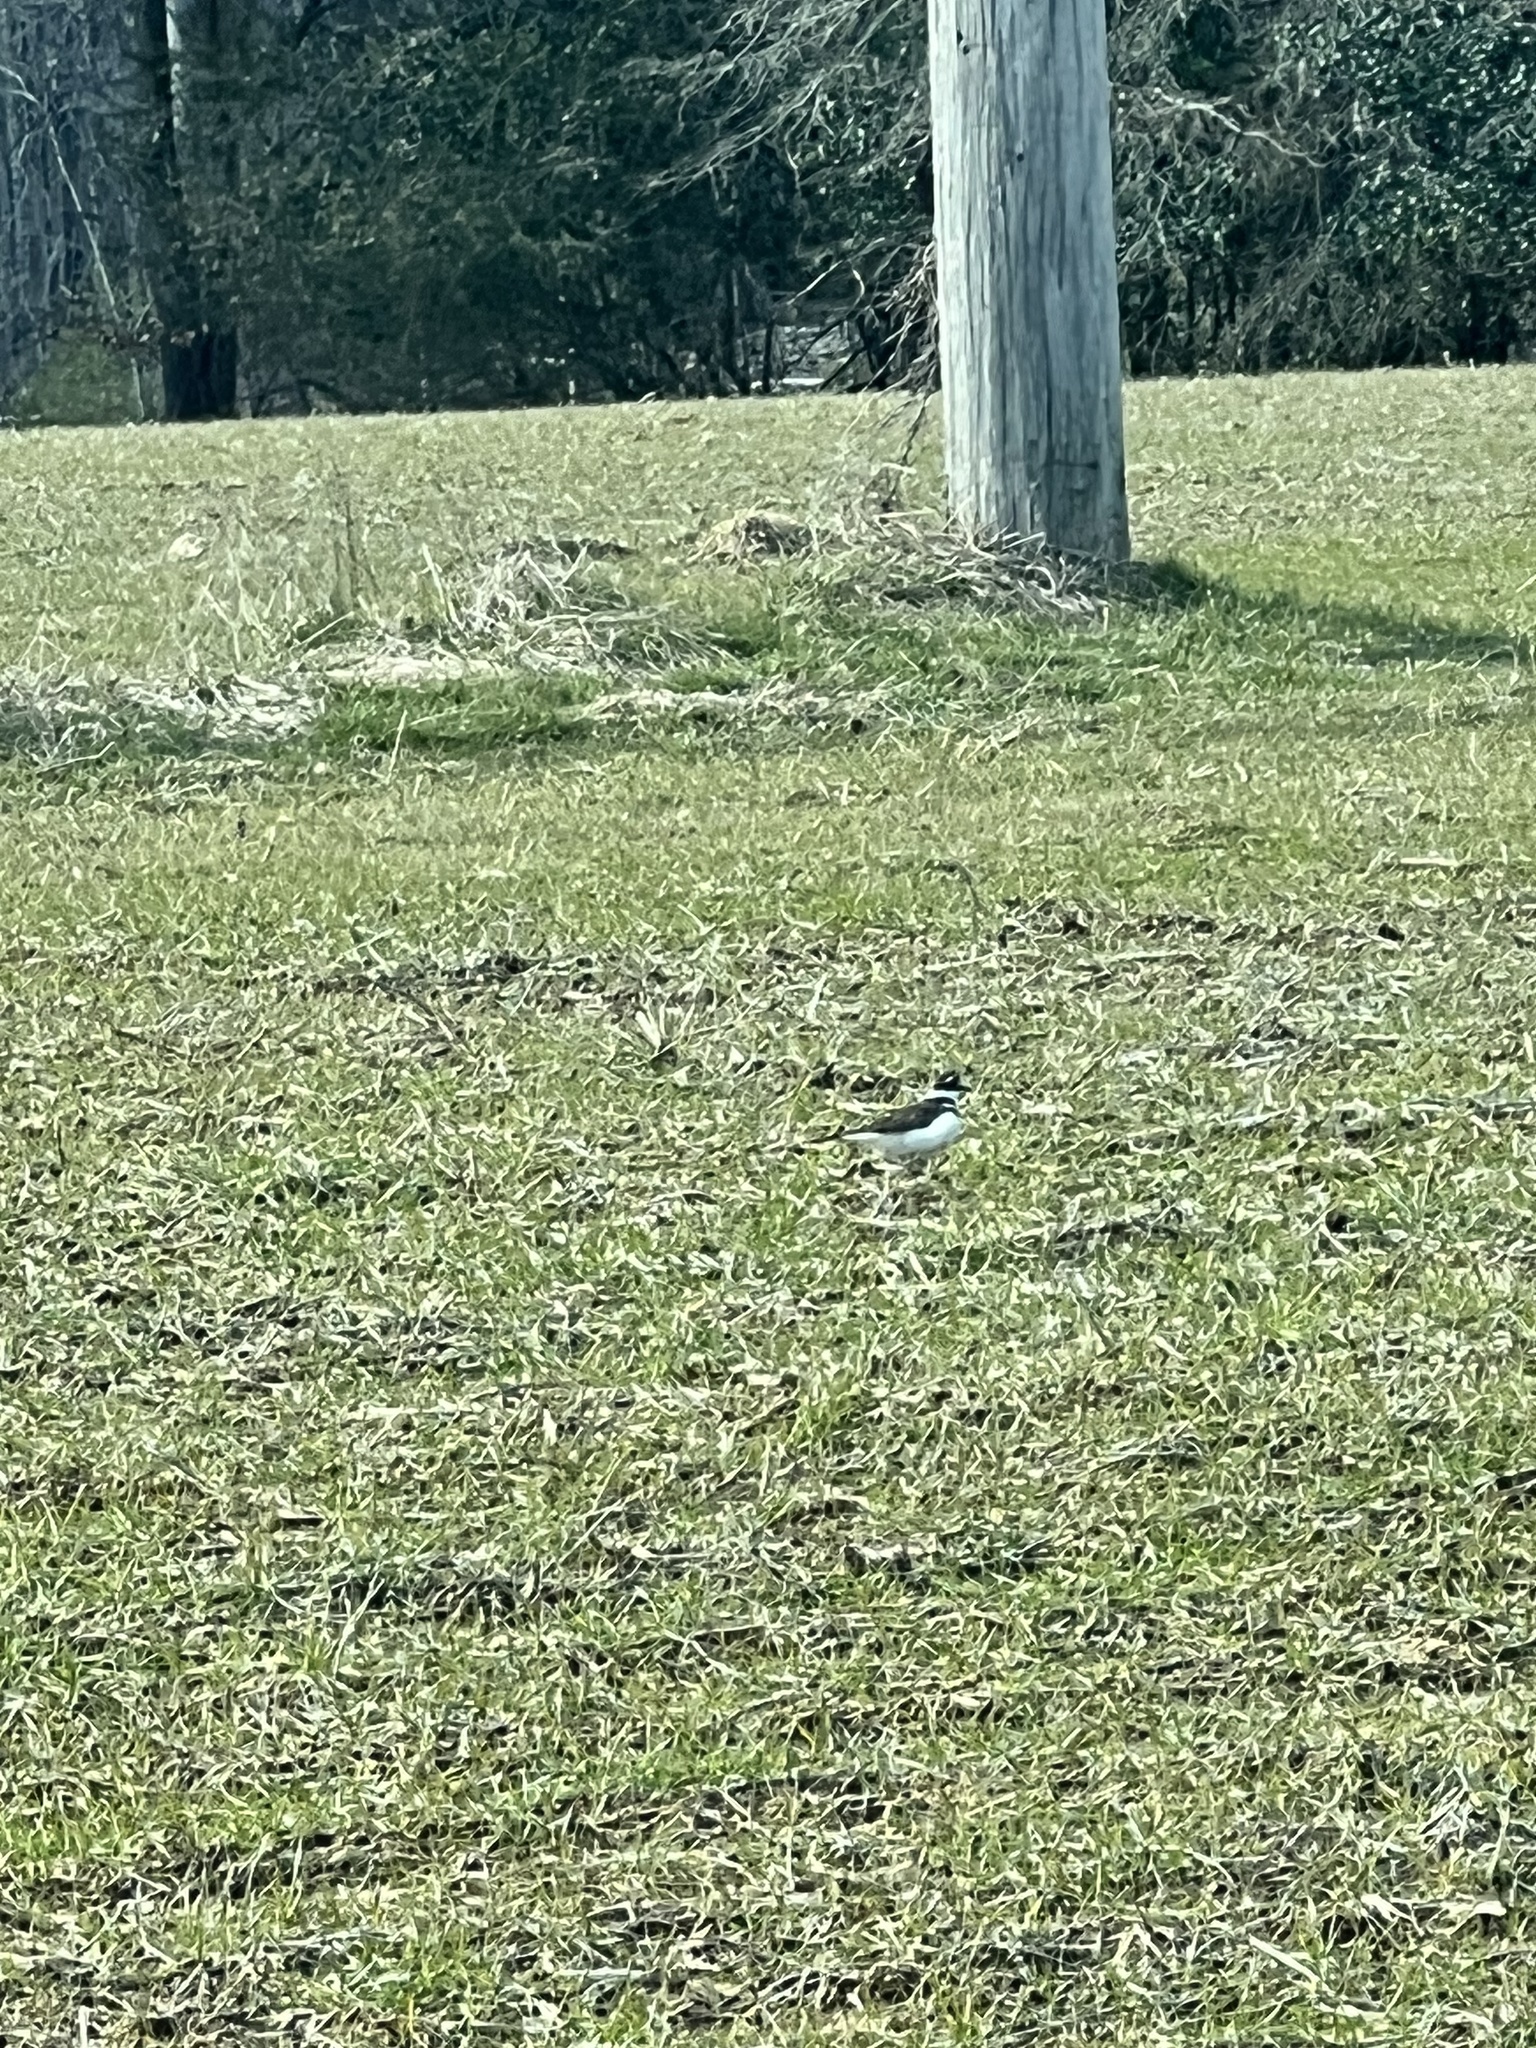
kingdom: Animalia
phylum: Chordata
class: Aves
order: Charadriiformes
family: Charadriidae
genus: Charadrius
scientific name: Charadrius vociferus
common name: Killdeer
